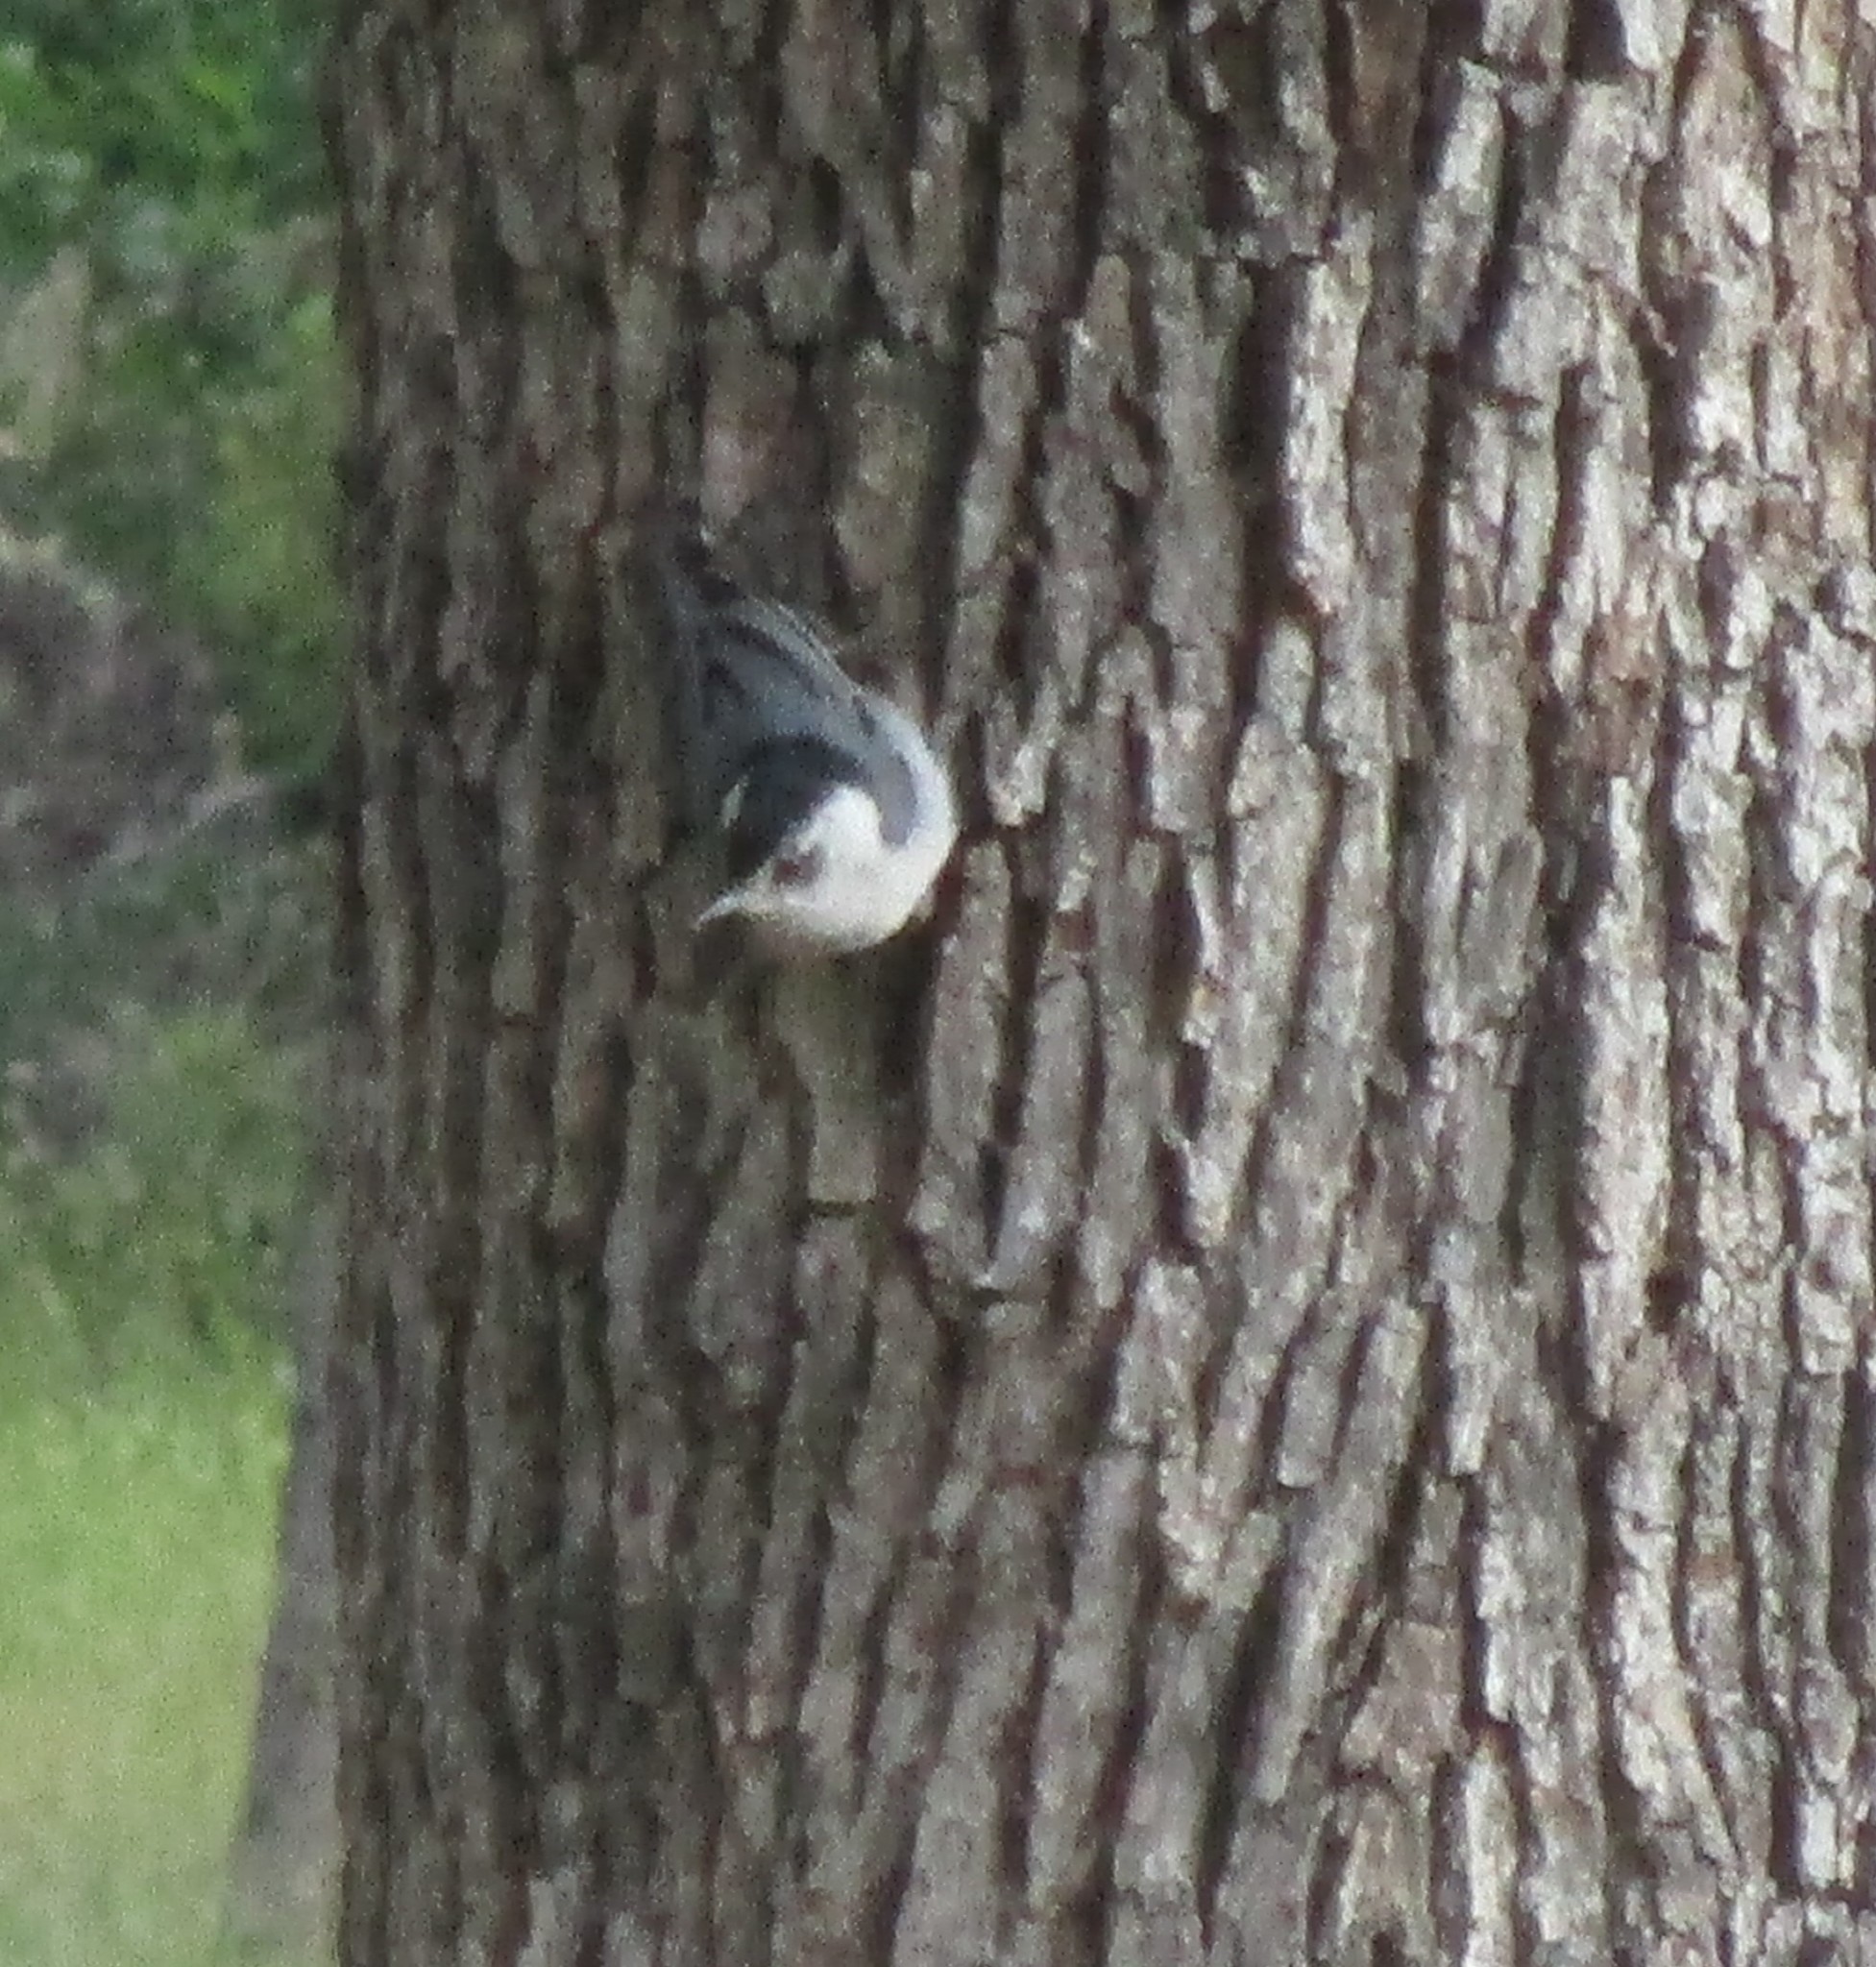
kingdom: Animalia
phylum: Chordata
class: Aves
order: Passeriformes
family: Sittidae
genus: Sitta
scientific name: Sitta carolinensis
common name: White-breasted nuthatch
